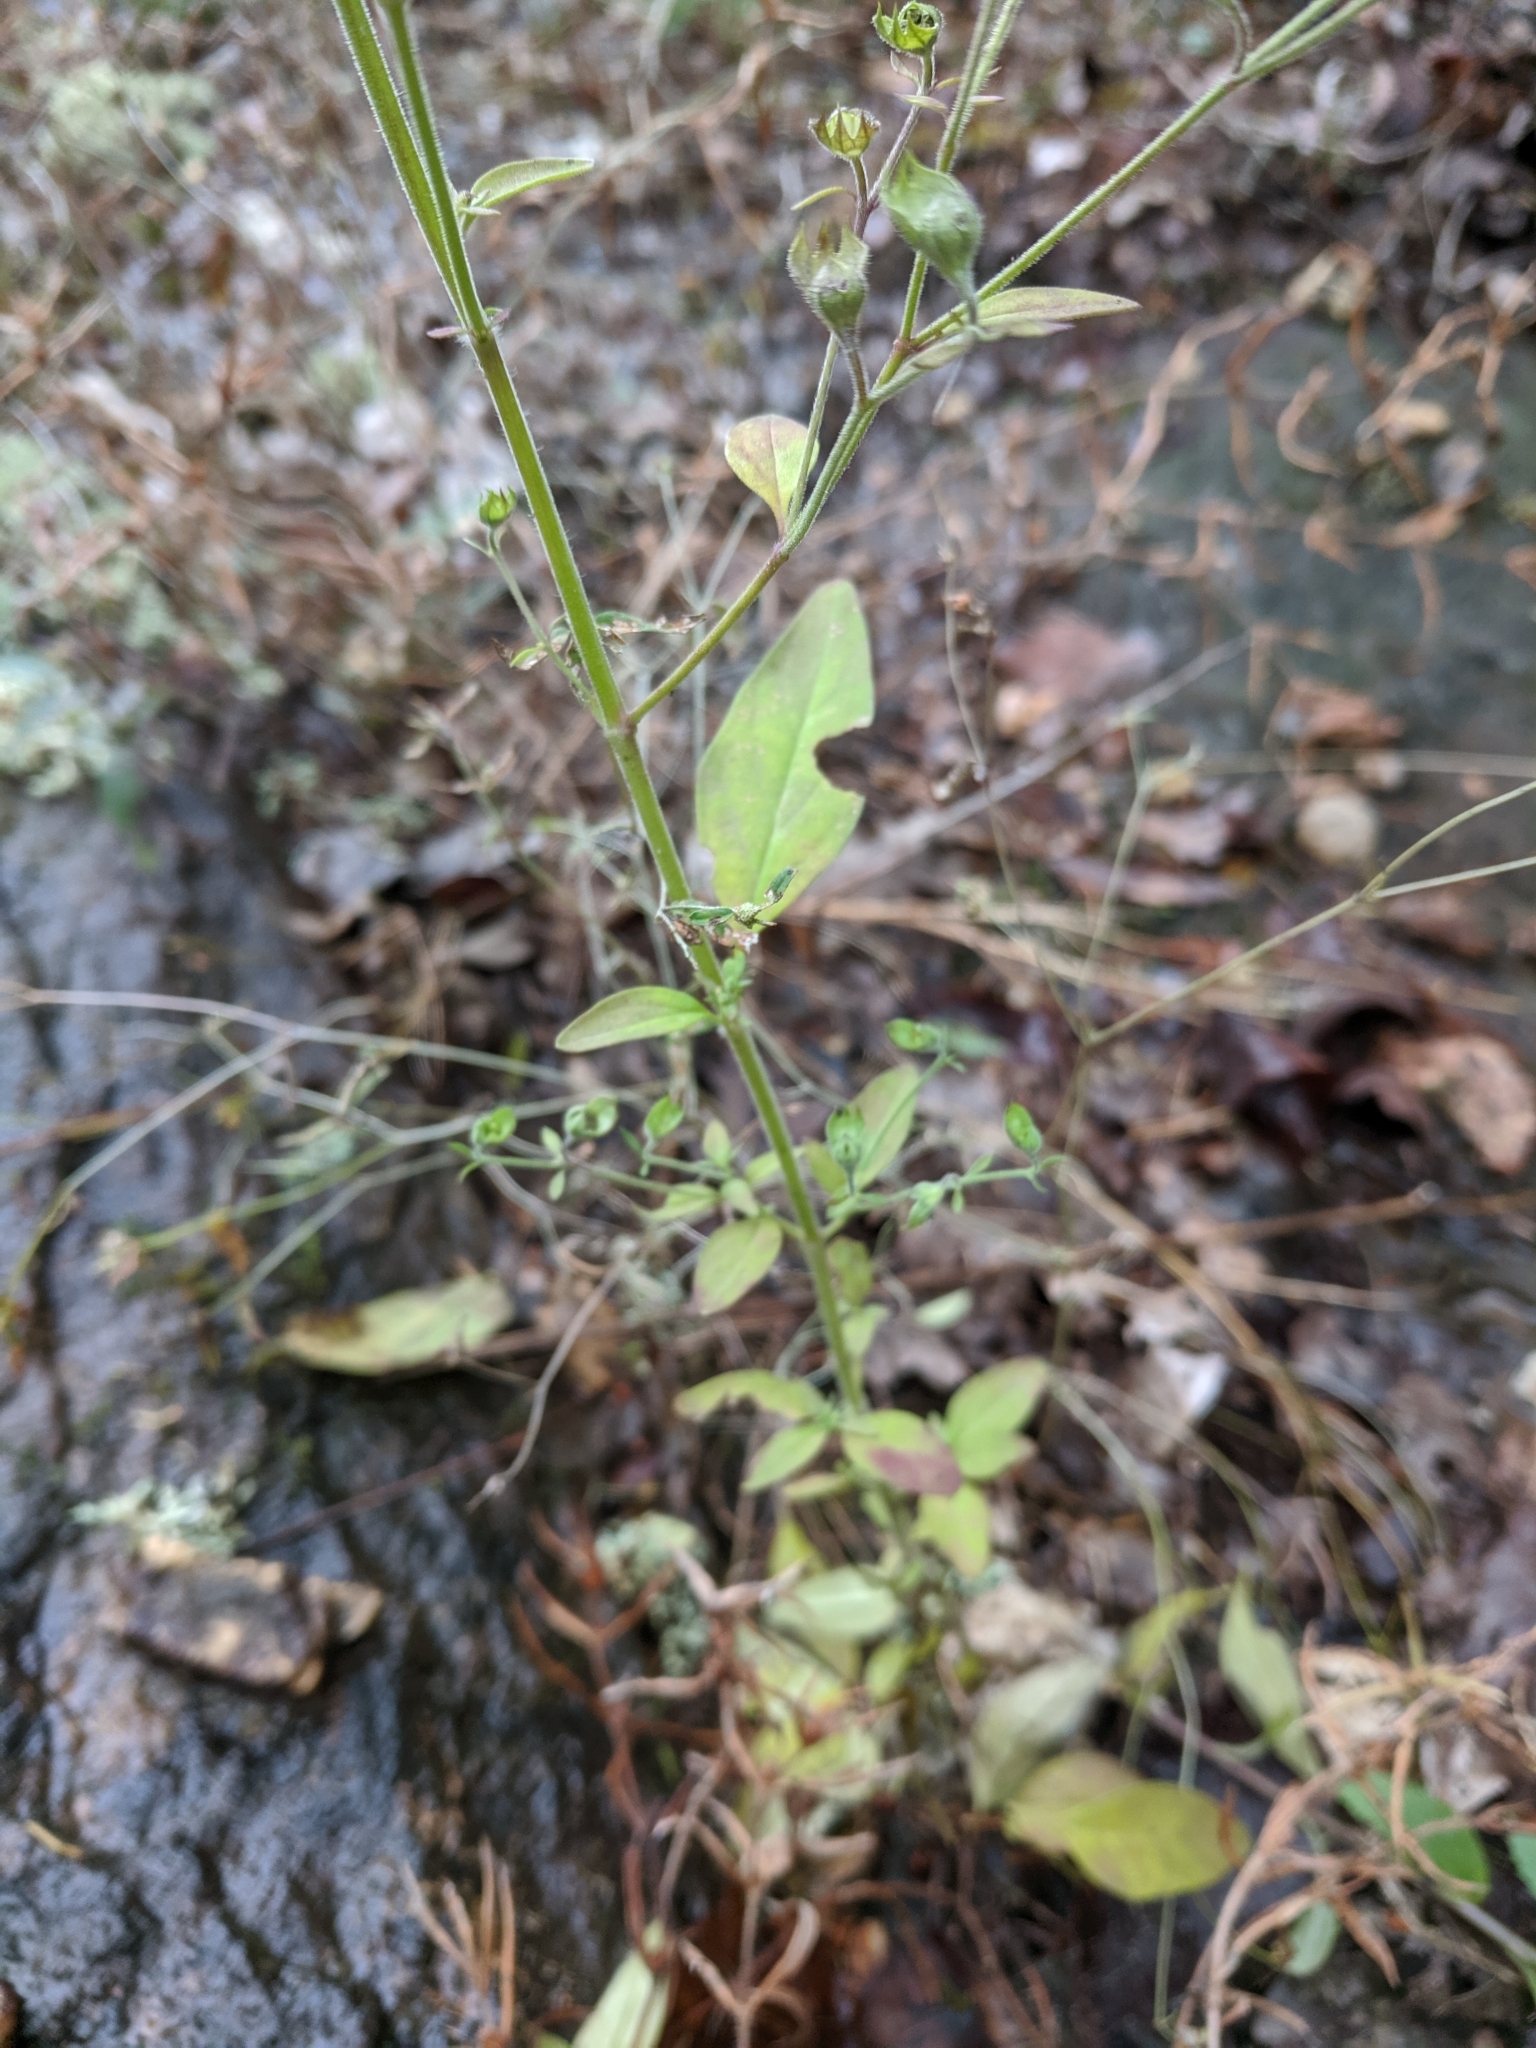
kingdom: Plantae
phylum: Tracheophyta
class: Magnoliopsida
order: Lamiales
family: Lamiaceae
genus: Trichostema
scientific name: Trichostema dichotomum
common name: Bastard pennyroyal
